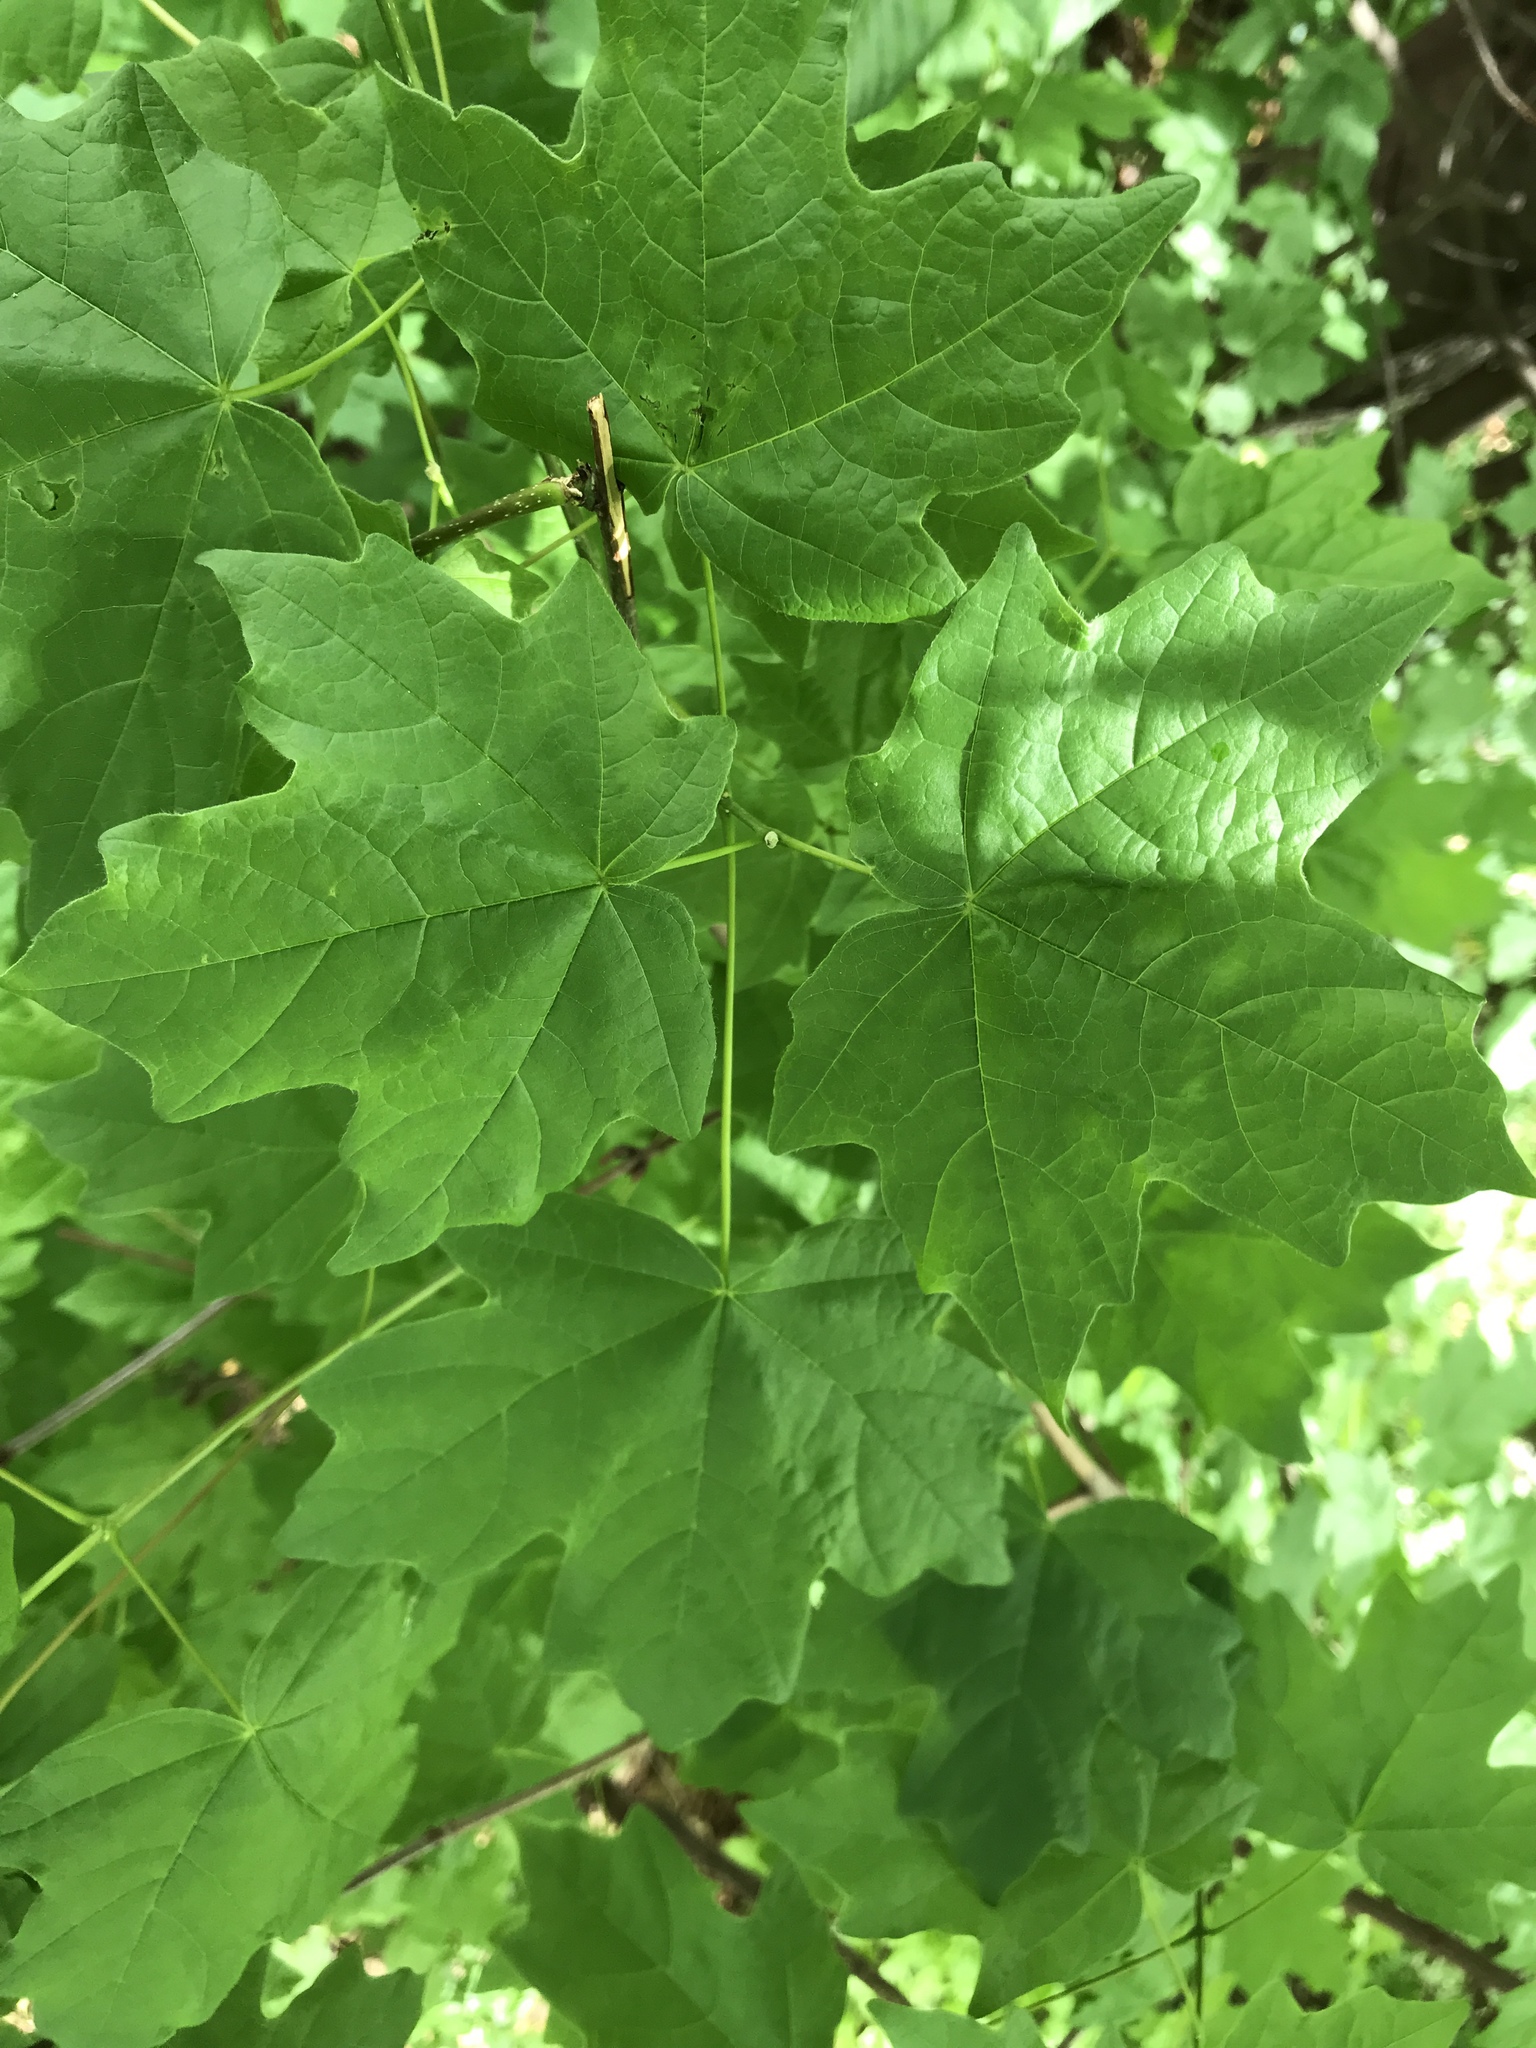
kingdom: Plantae
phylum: Tracheophyta
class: Magnoliopsida
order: Sapindales
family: Sapindaceae
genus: Acer
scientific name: Acer saccharum
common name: Sugar maple
